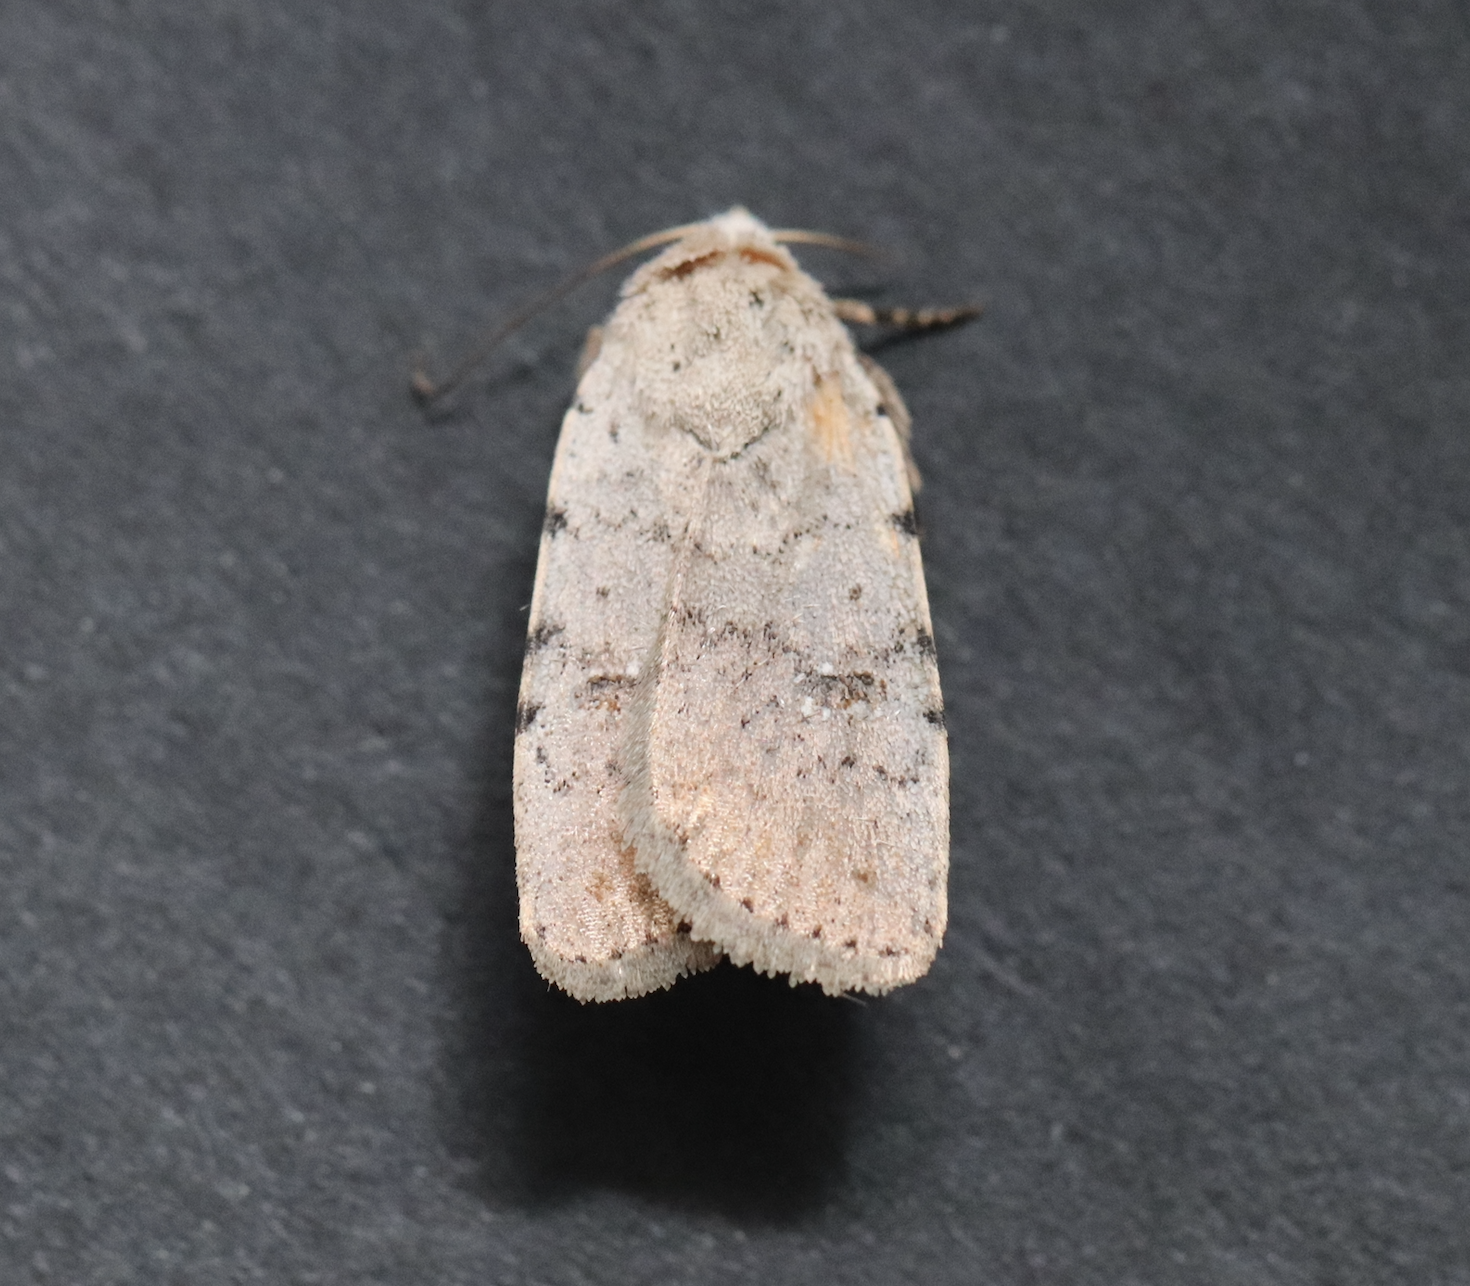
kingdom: Animalia
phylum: Arthropoda
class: Insecta
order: Lepidoptera
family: Noctuidae
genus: Caradrina
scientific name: Caradrina clavipalpis
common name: Pale mottled willow
